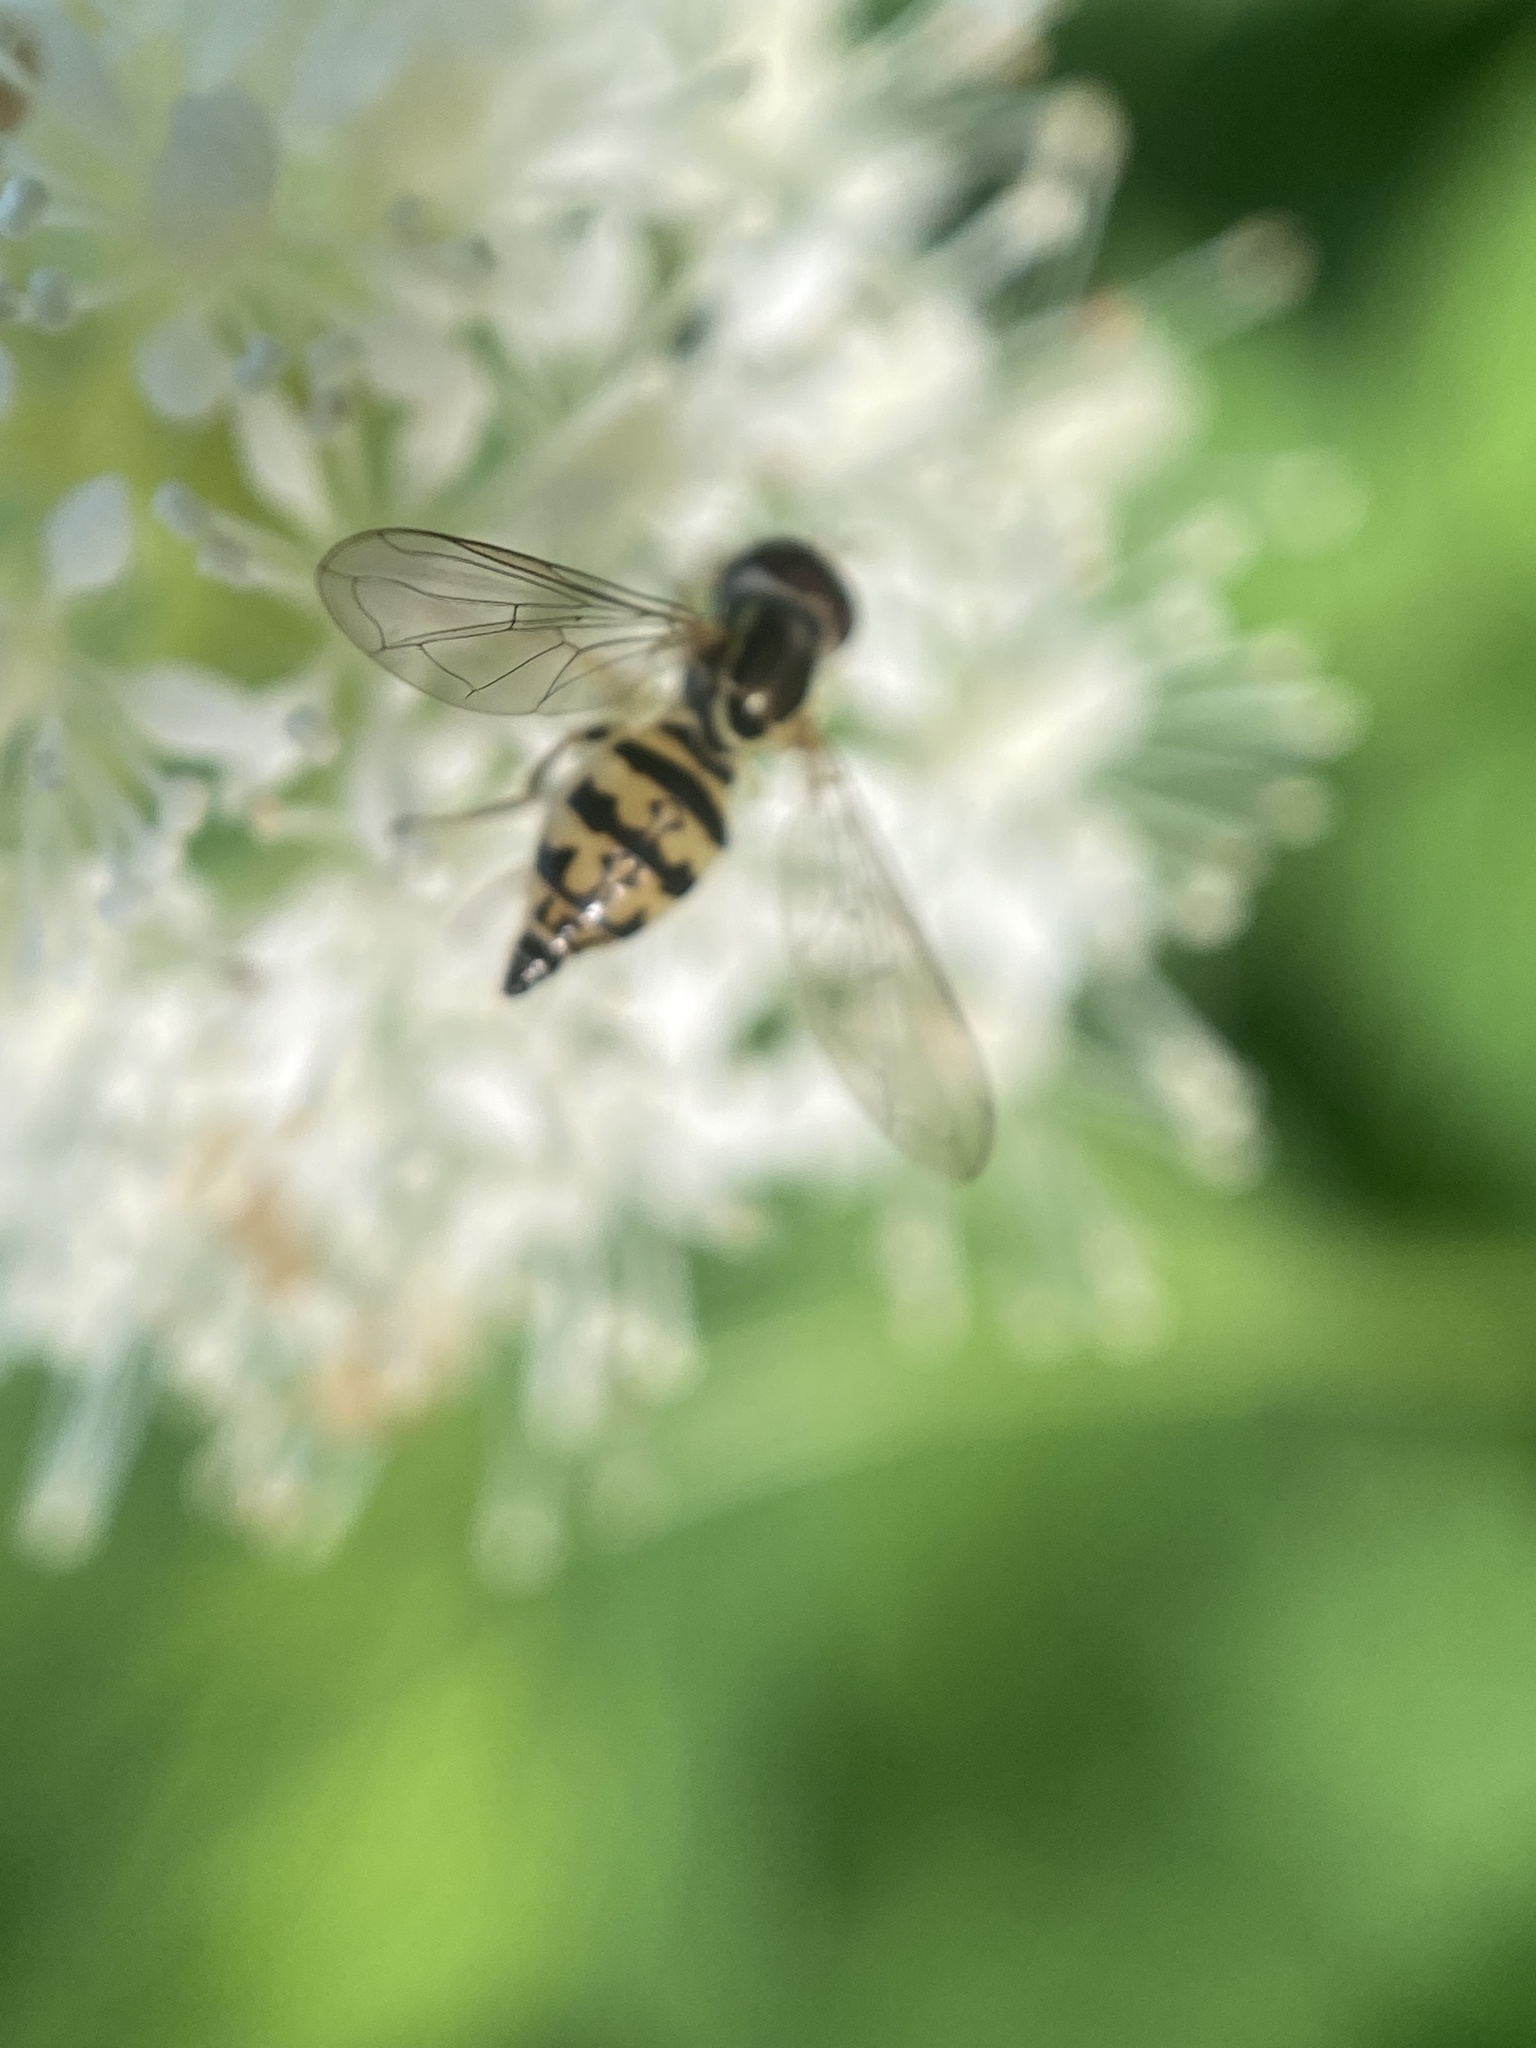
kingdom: Animalia
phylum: Arthropoda
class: Insecta
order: Diptera
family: Syrphidae
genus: Toxomerus
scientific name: Toxomerus geminatus
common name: Eastern calligrapher
